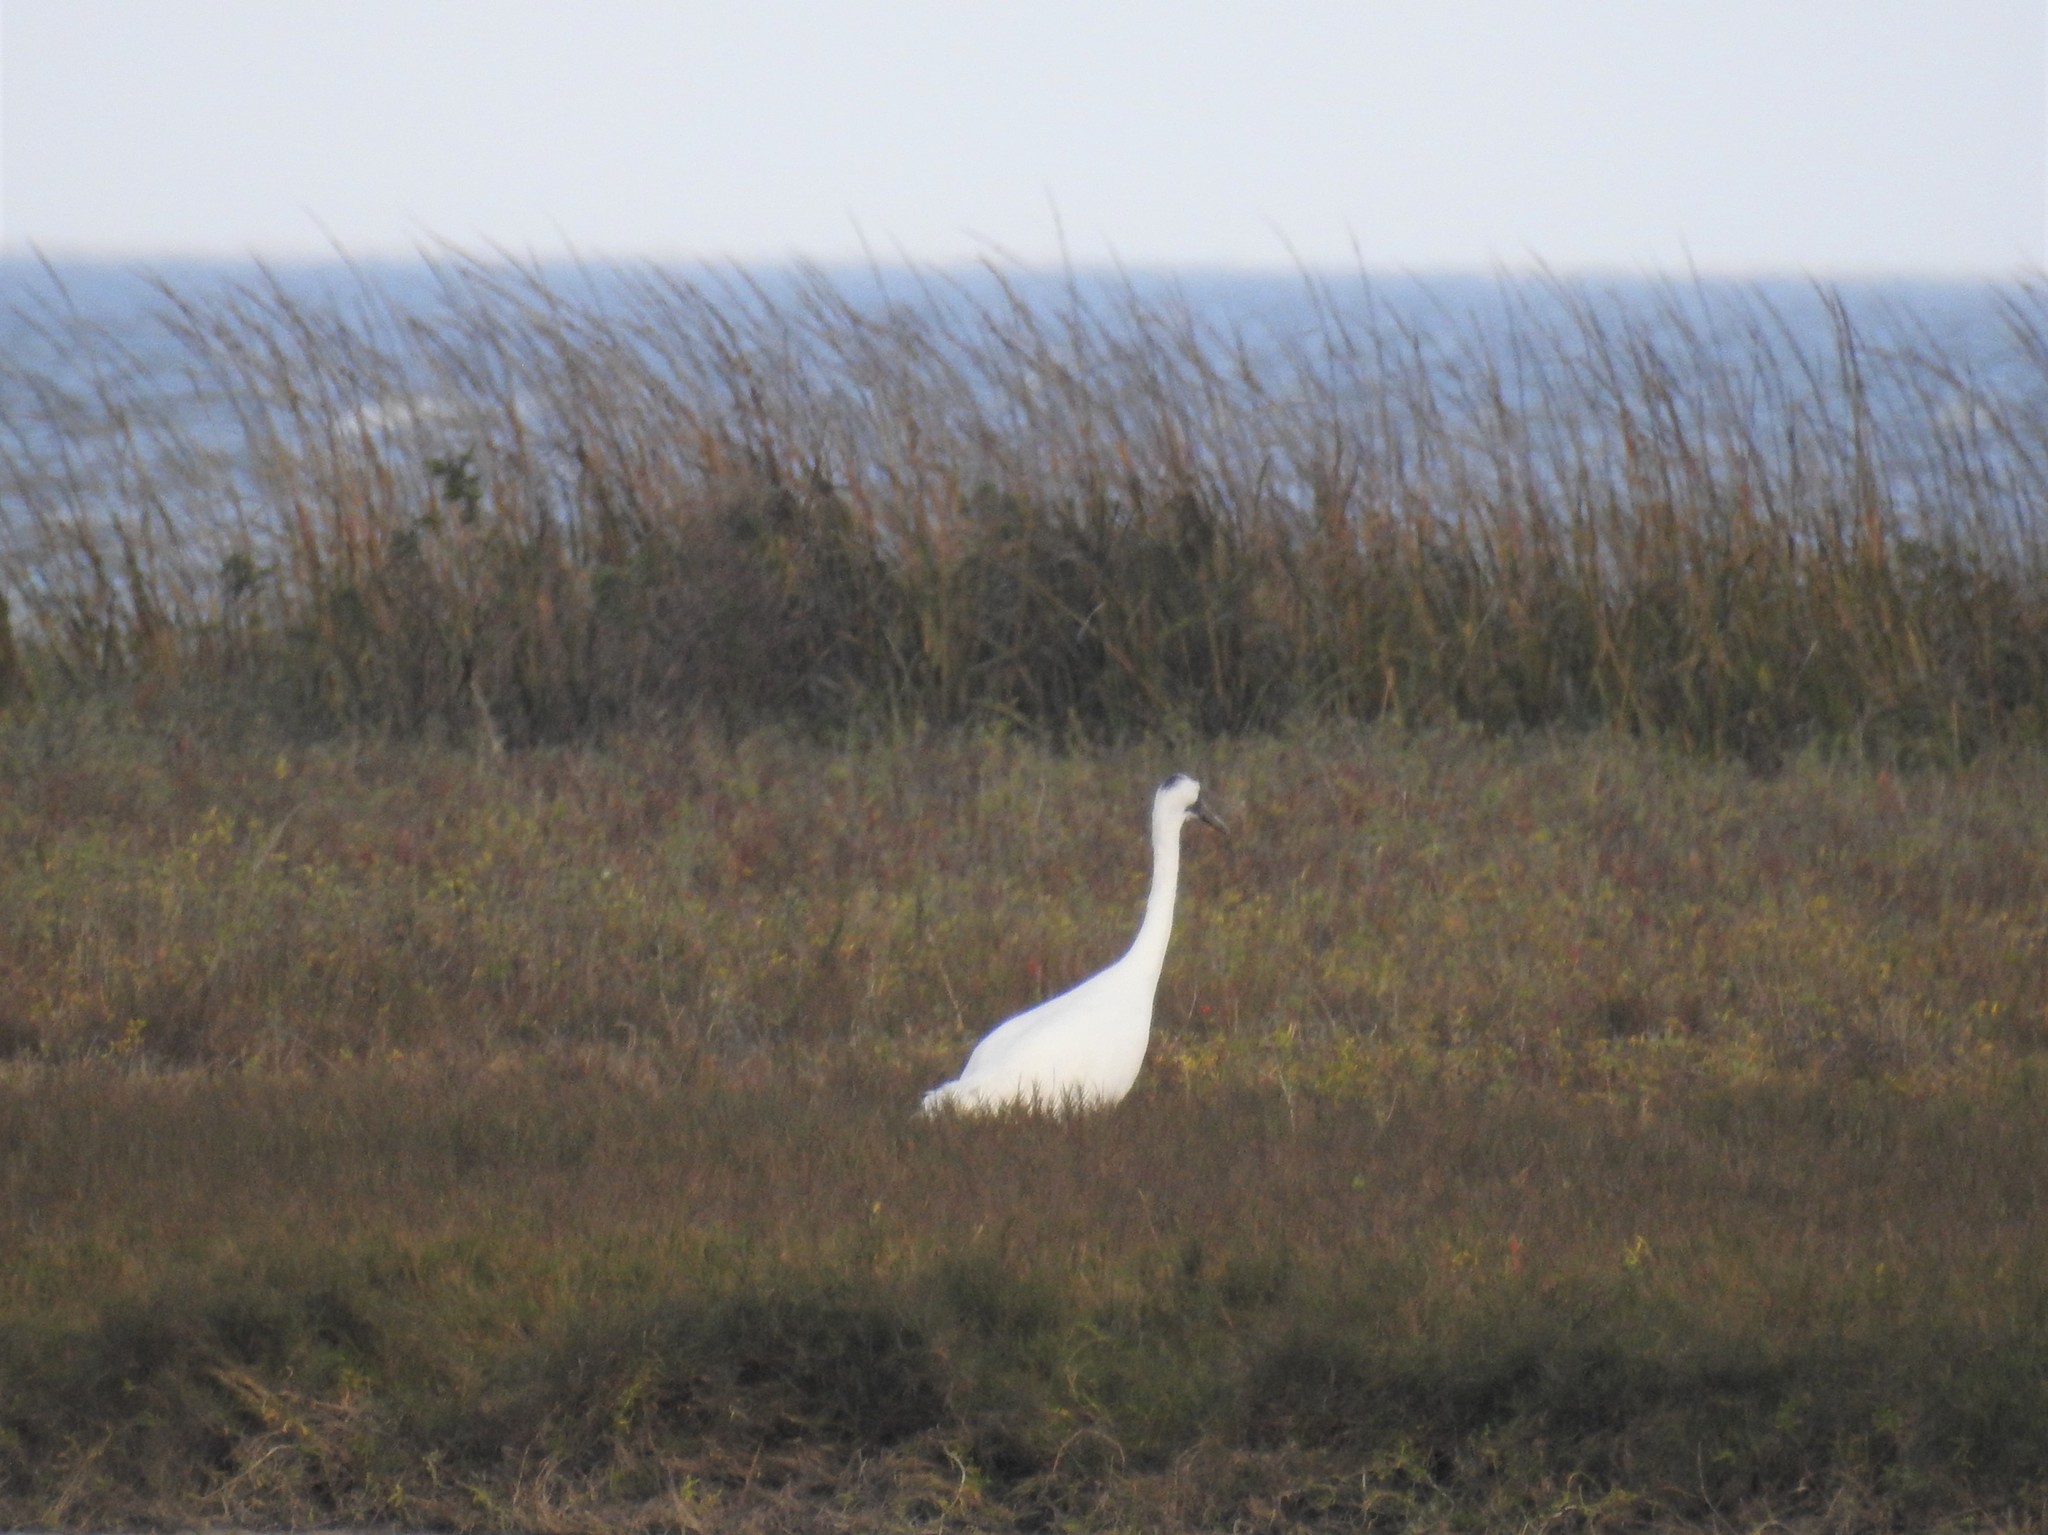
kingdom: Animalia
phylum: Chordata
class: Aves
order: Gruiformes
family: Gruidae
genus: Grus
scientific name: Grus americana
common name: Whooping crane
